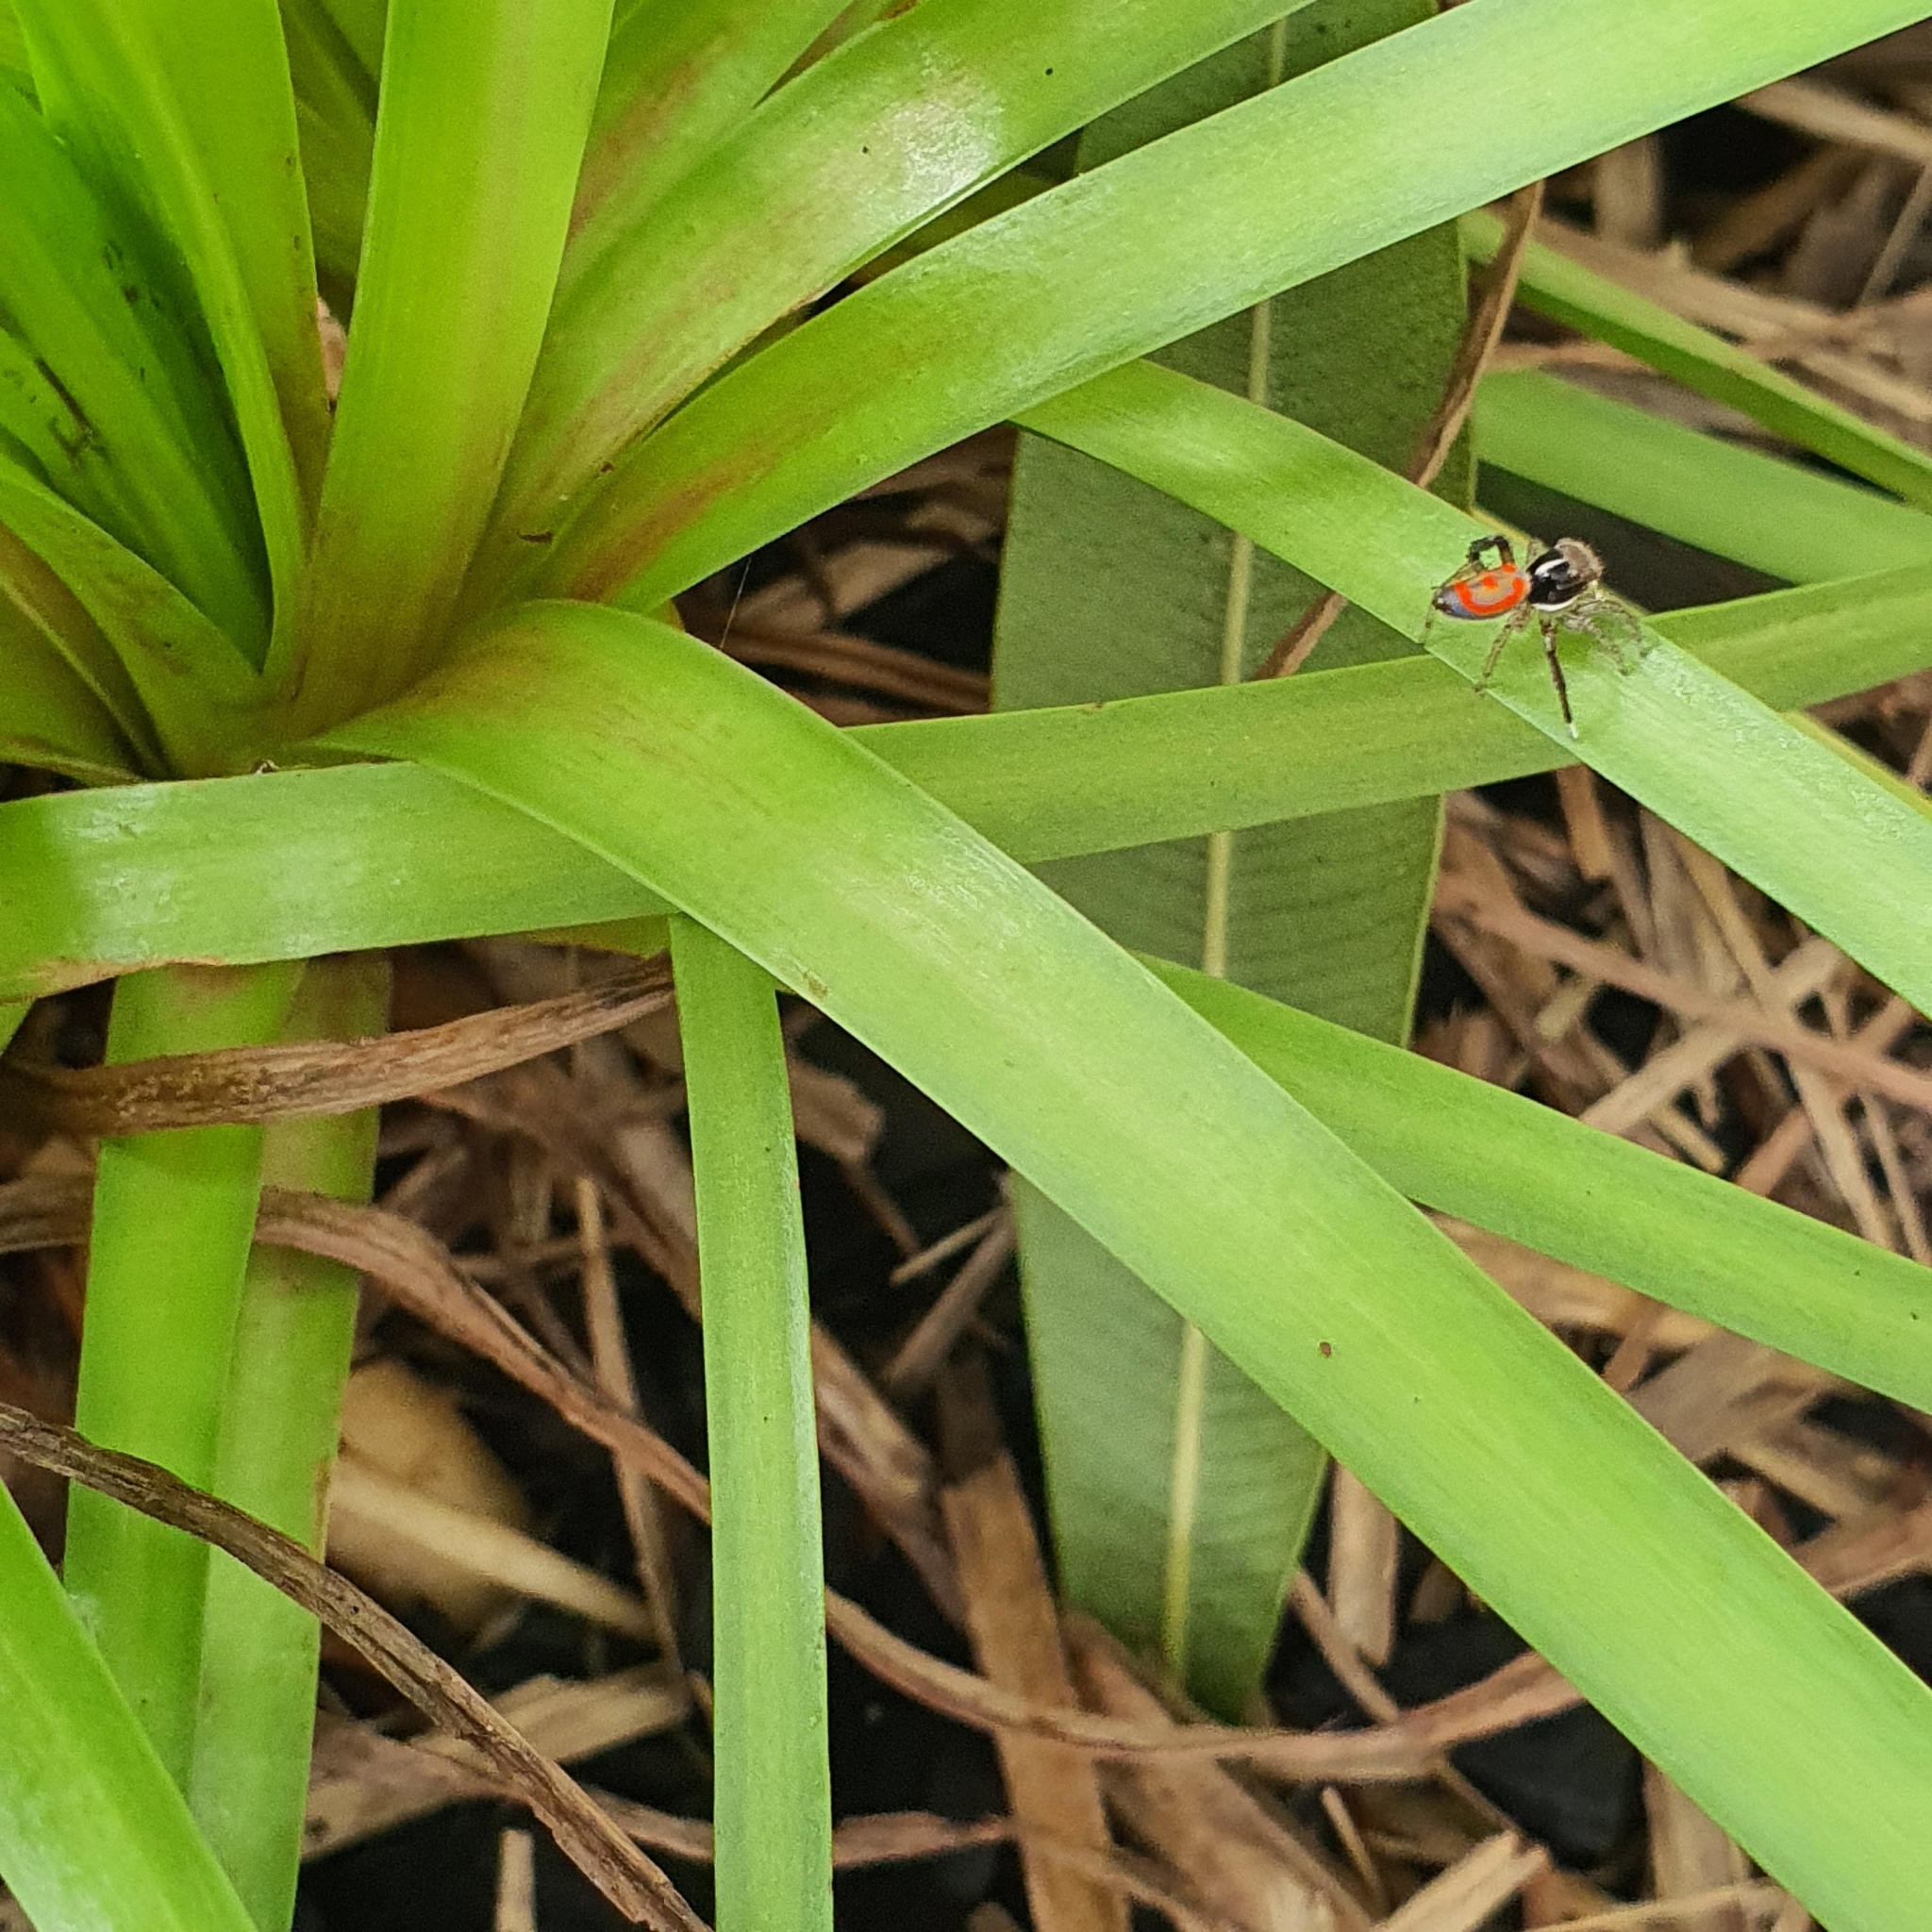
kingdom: Animalia
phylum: Arthropoda
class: Arachnida
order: Araneae
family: Salticidae
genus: Maratus
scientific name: Maratus pavonis
